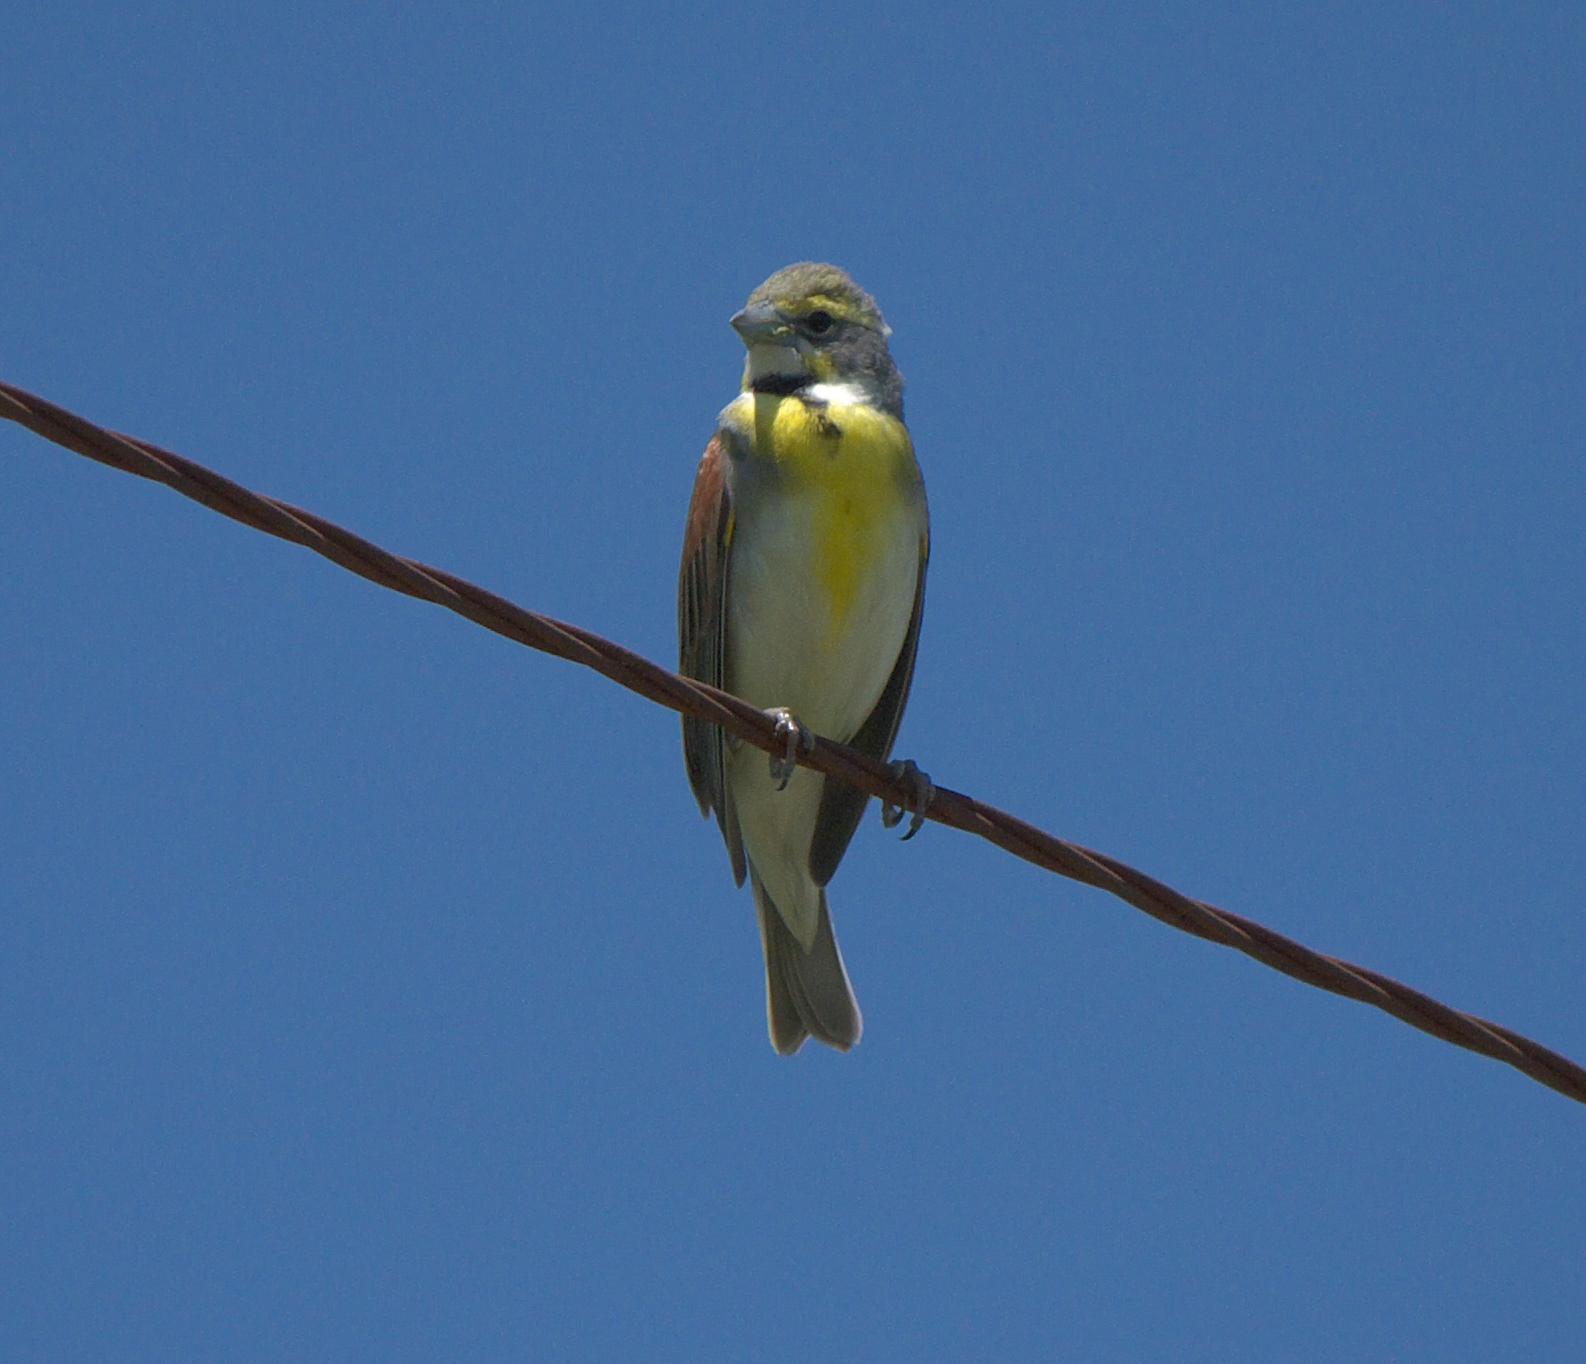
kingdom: Animalia
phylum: Chordata
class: Aves
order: Passeriformes
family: Cardinalidae
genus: Spiza
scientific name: Spiza americana
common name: Dickcissel
